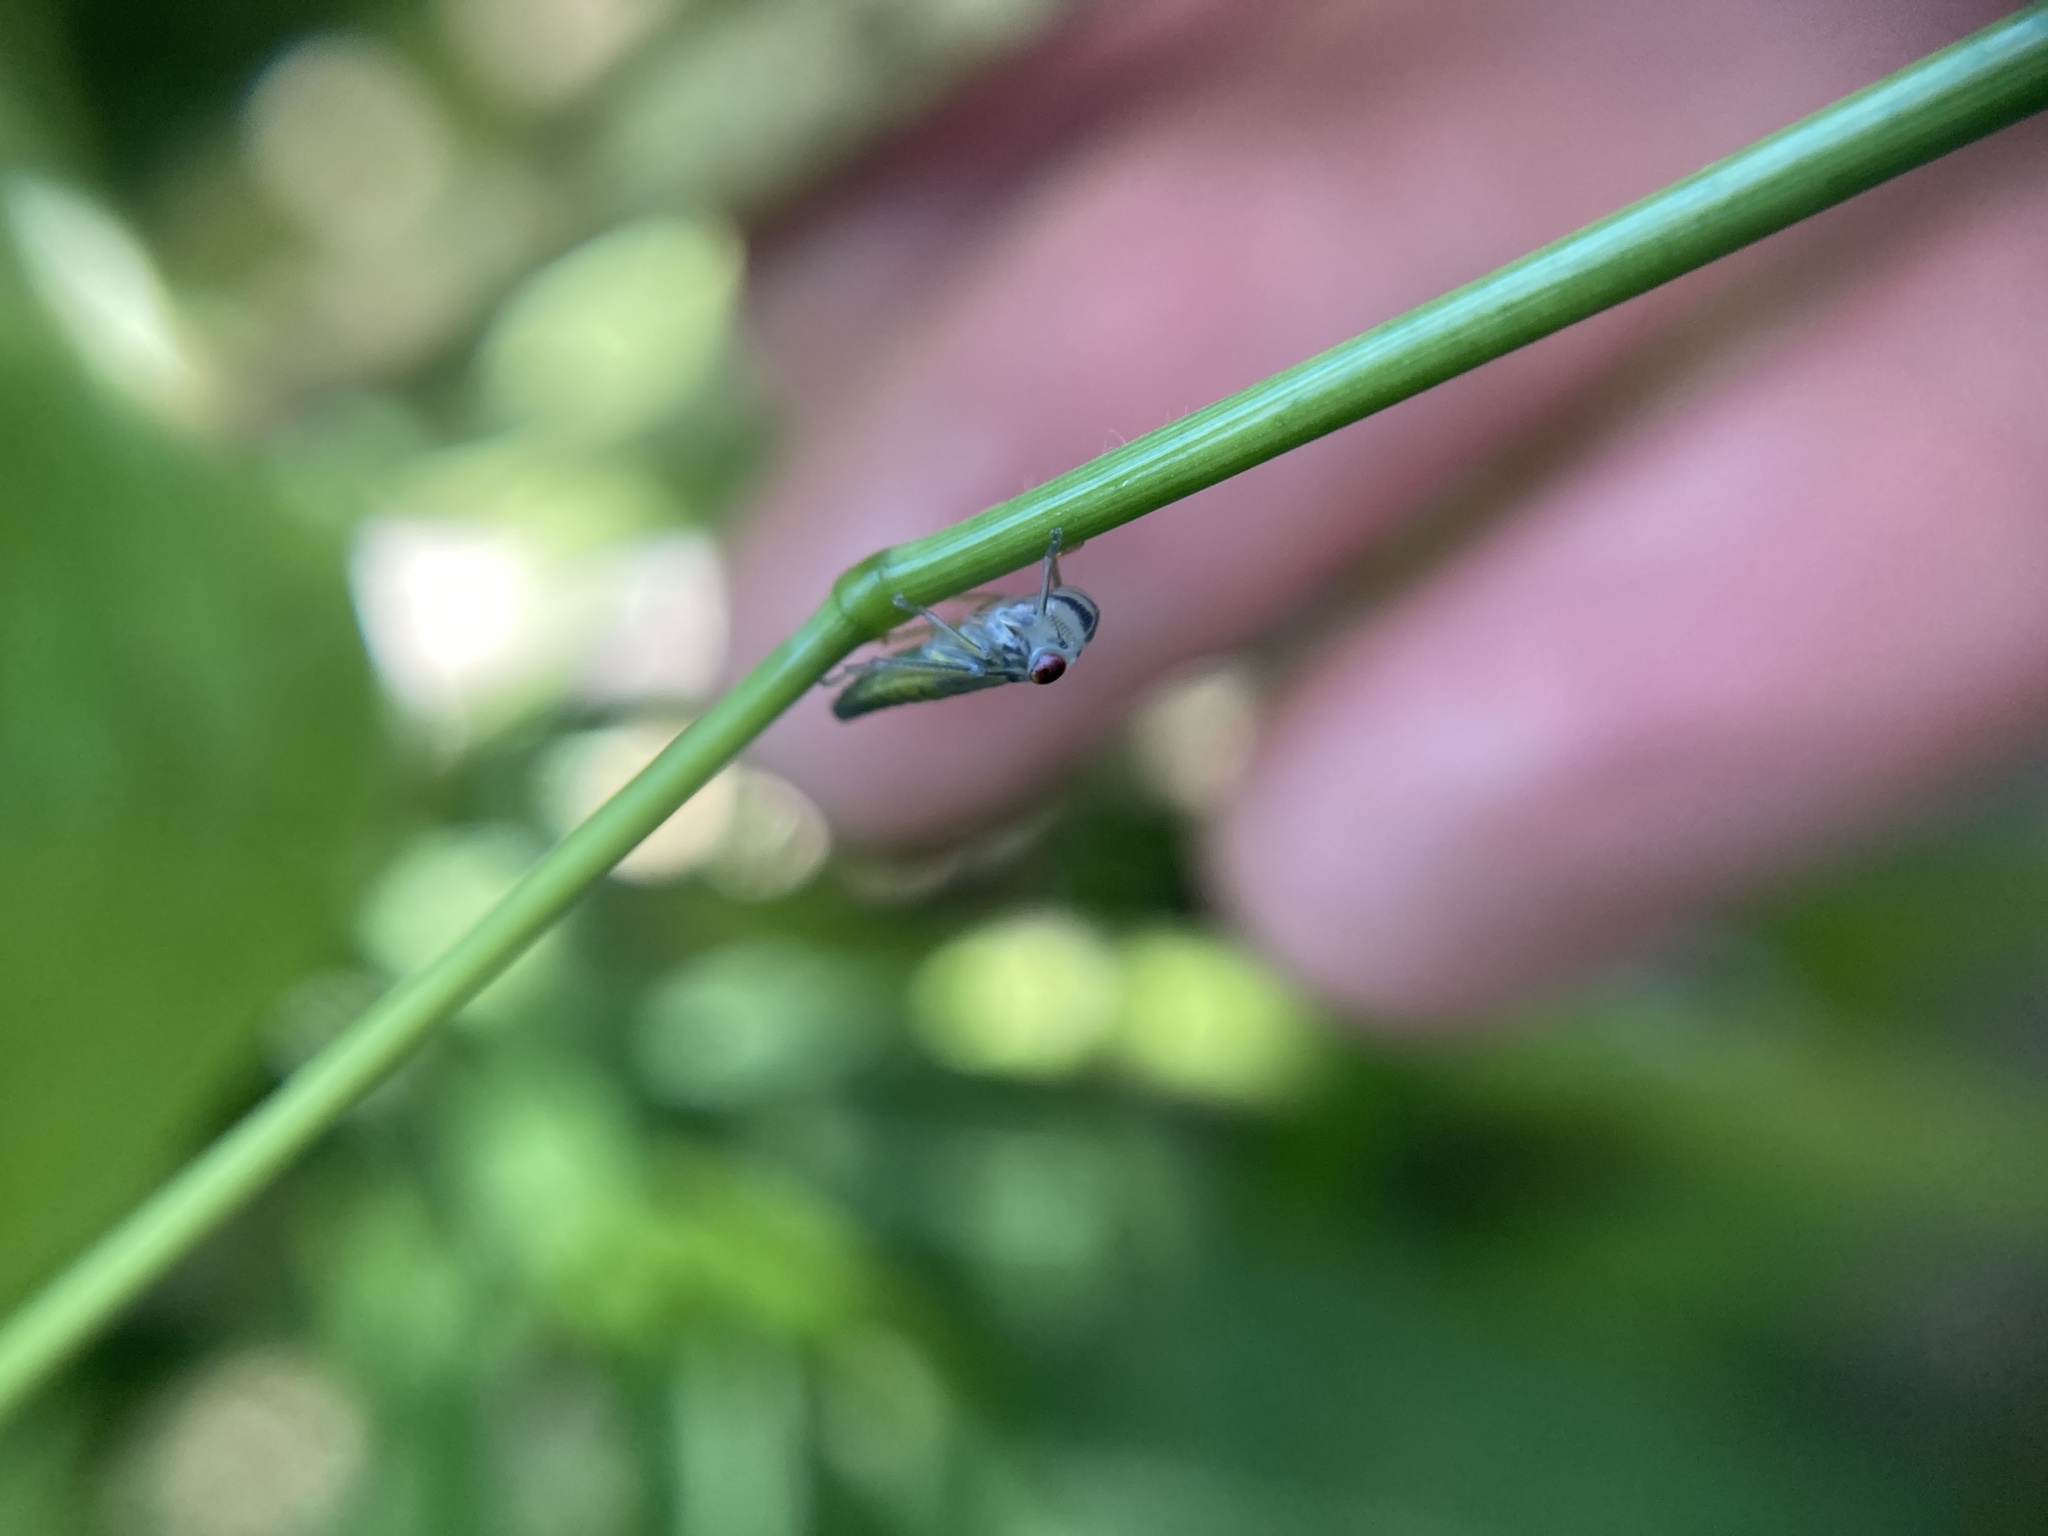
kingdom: Animalia
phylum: Arthropoda
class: Insecta
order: Hemiptera
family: Cicadellidae
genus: Oncometopia
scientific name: Oncometopia orbona
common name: Broad-headed sharpshooter
